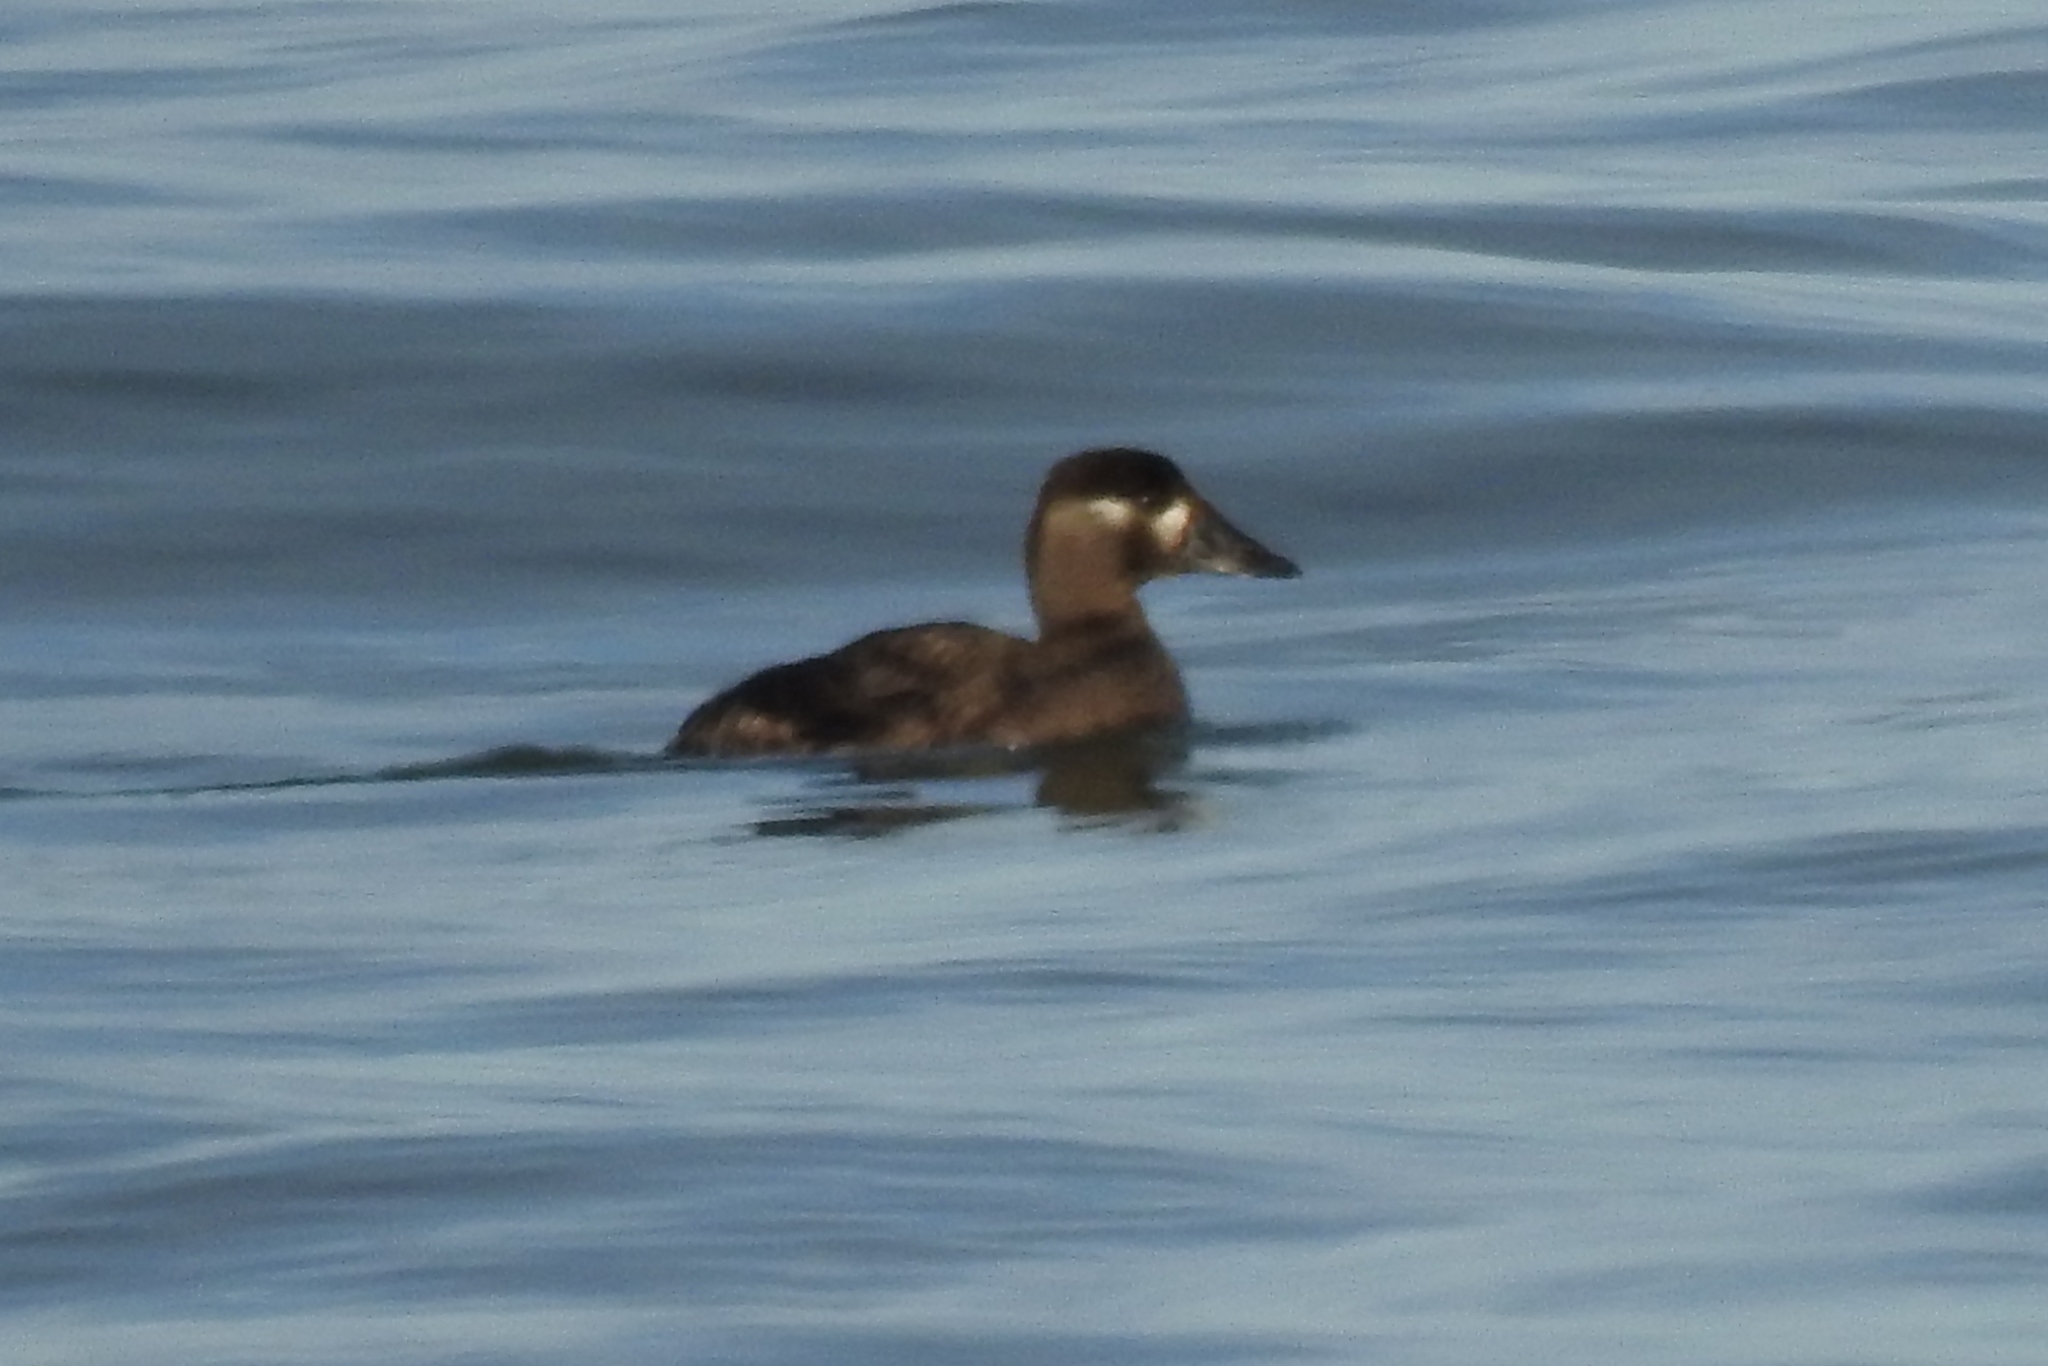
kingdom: Animalia
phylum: Chordata
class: Aves
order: Anseriformes
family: Anatidae
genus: Melanitta
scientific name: Melanitta perspicillata
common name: Surf scoter
